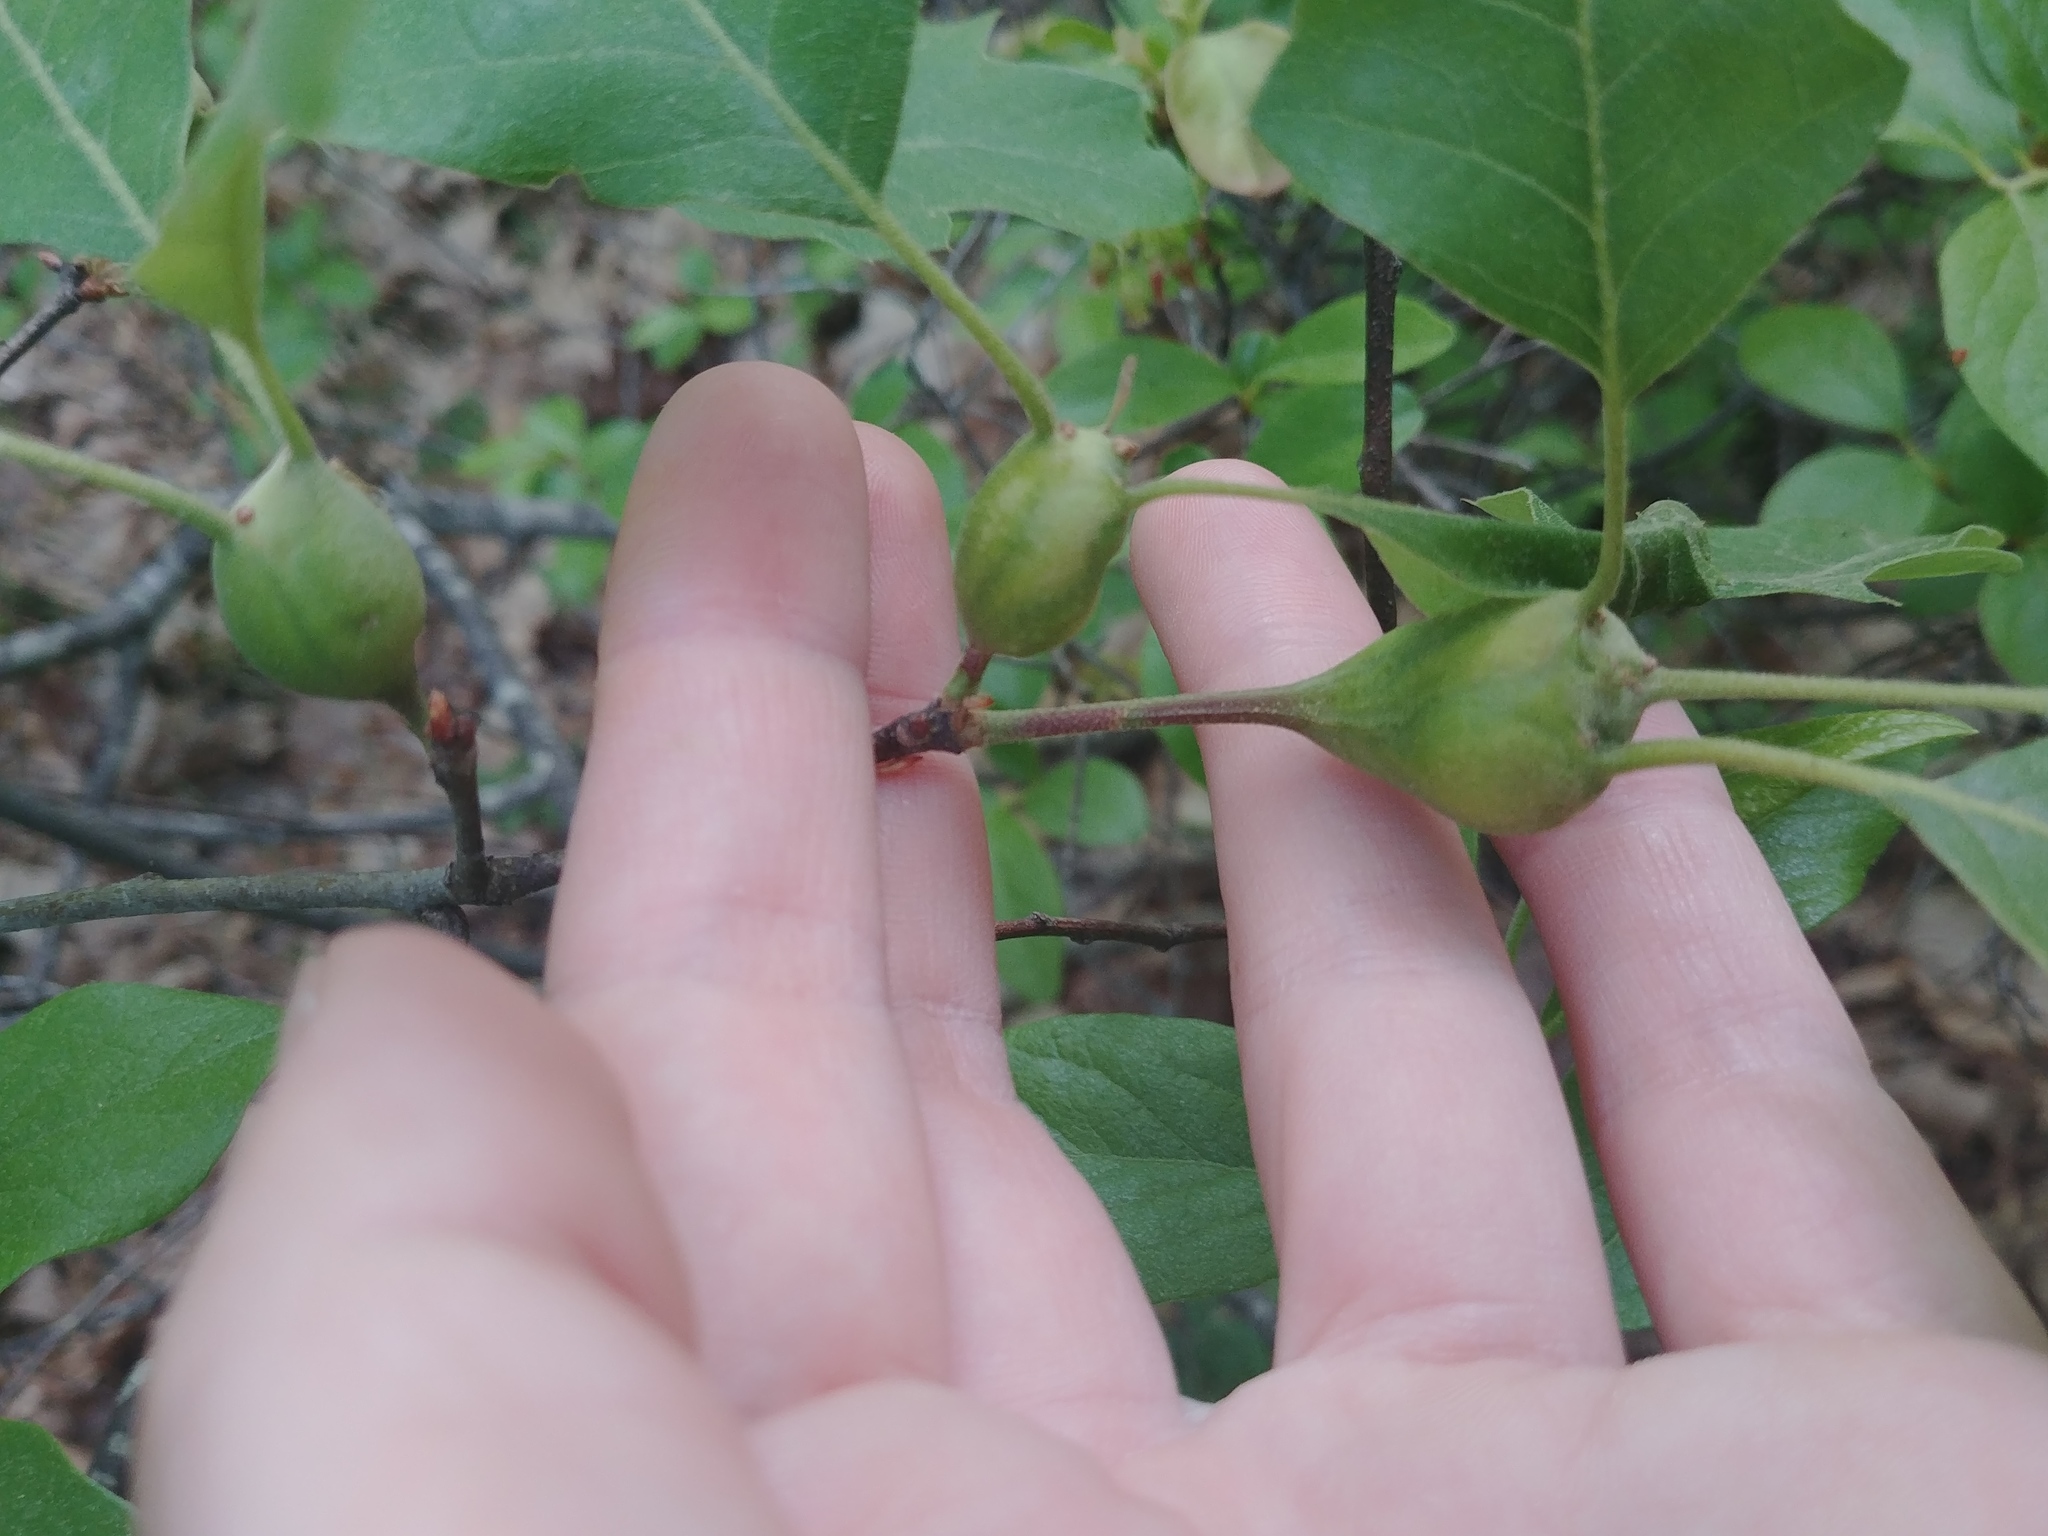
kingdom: Animalia
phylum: Arthropoda
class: Insecta
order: Hymenoptera
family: Cynipidae
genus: Zapatella
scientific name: Zapatella quercusphellos
